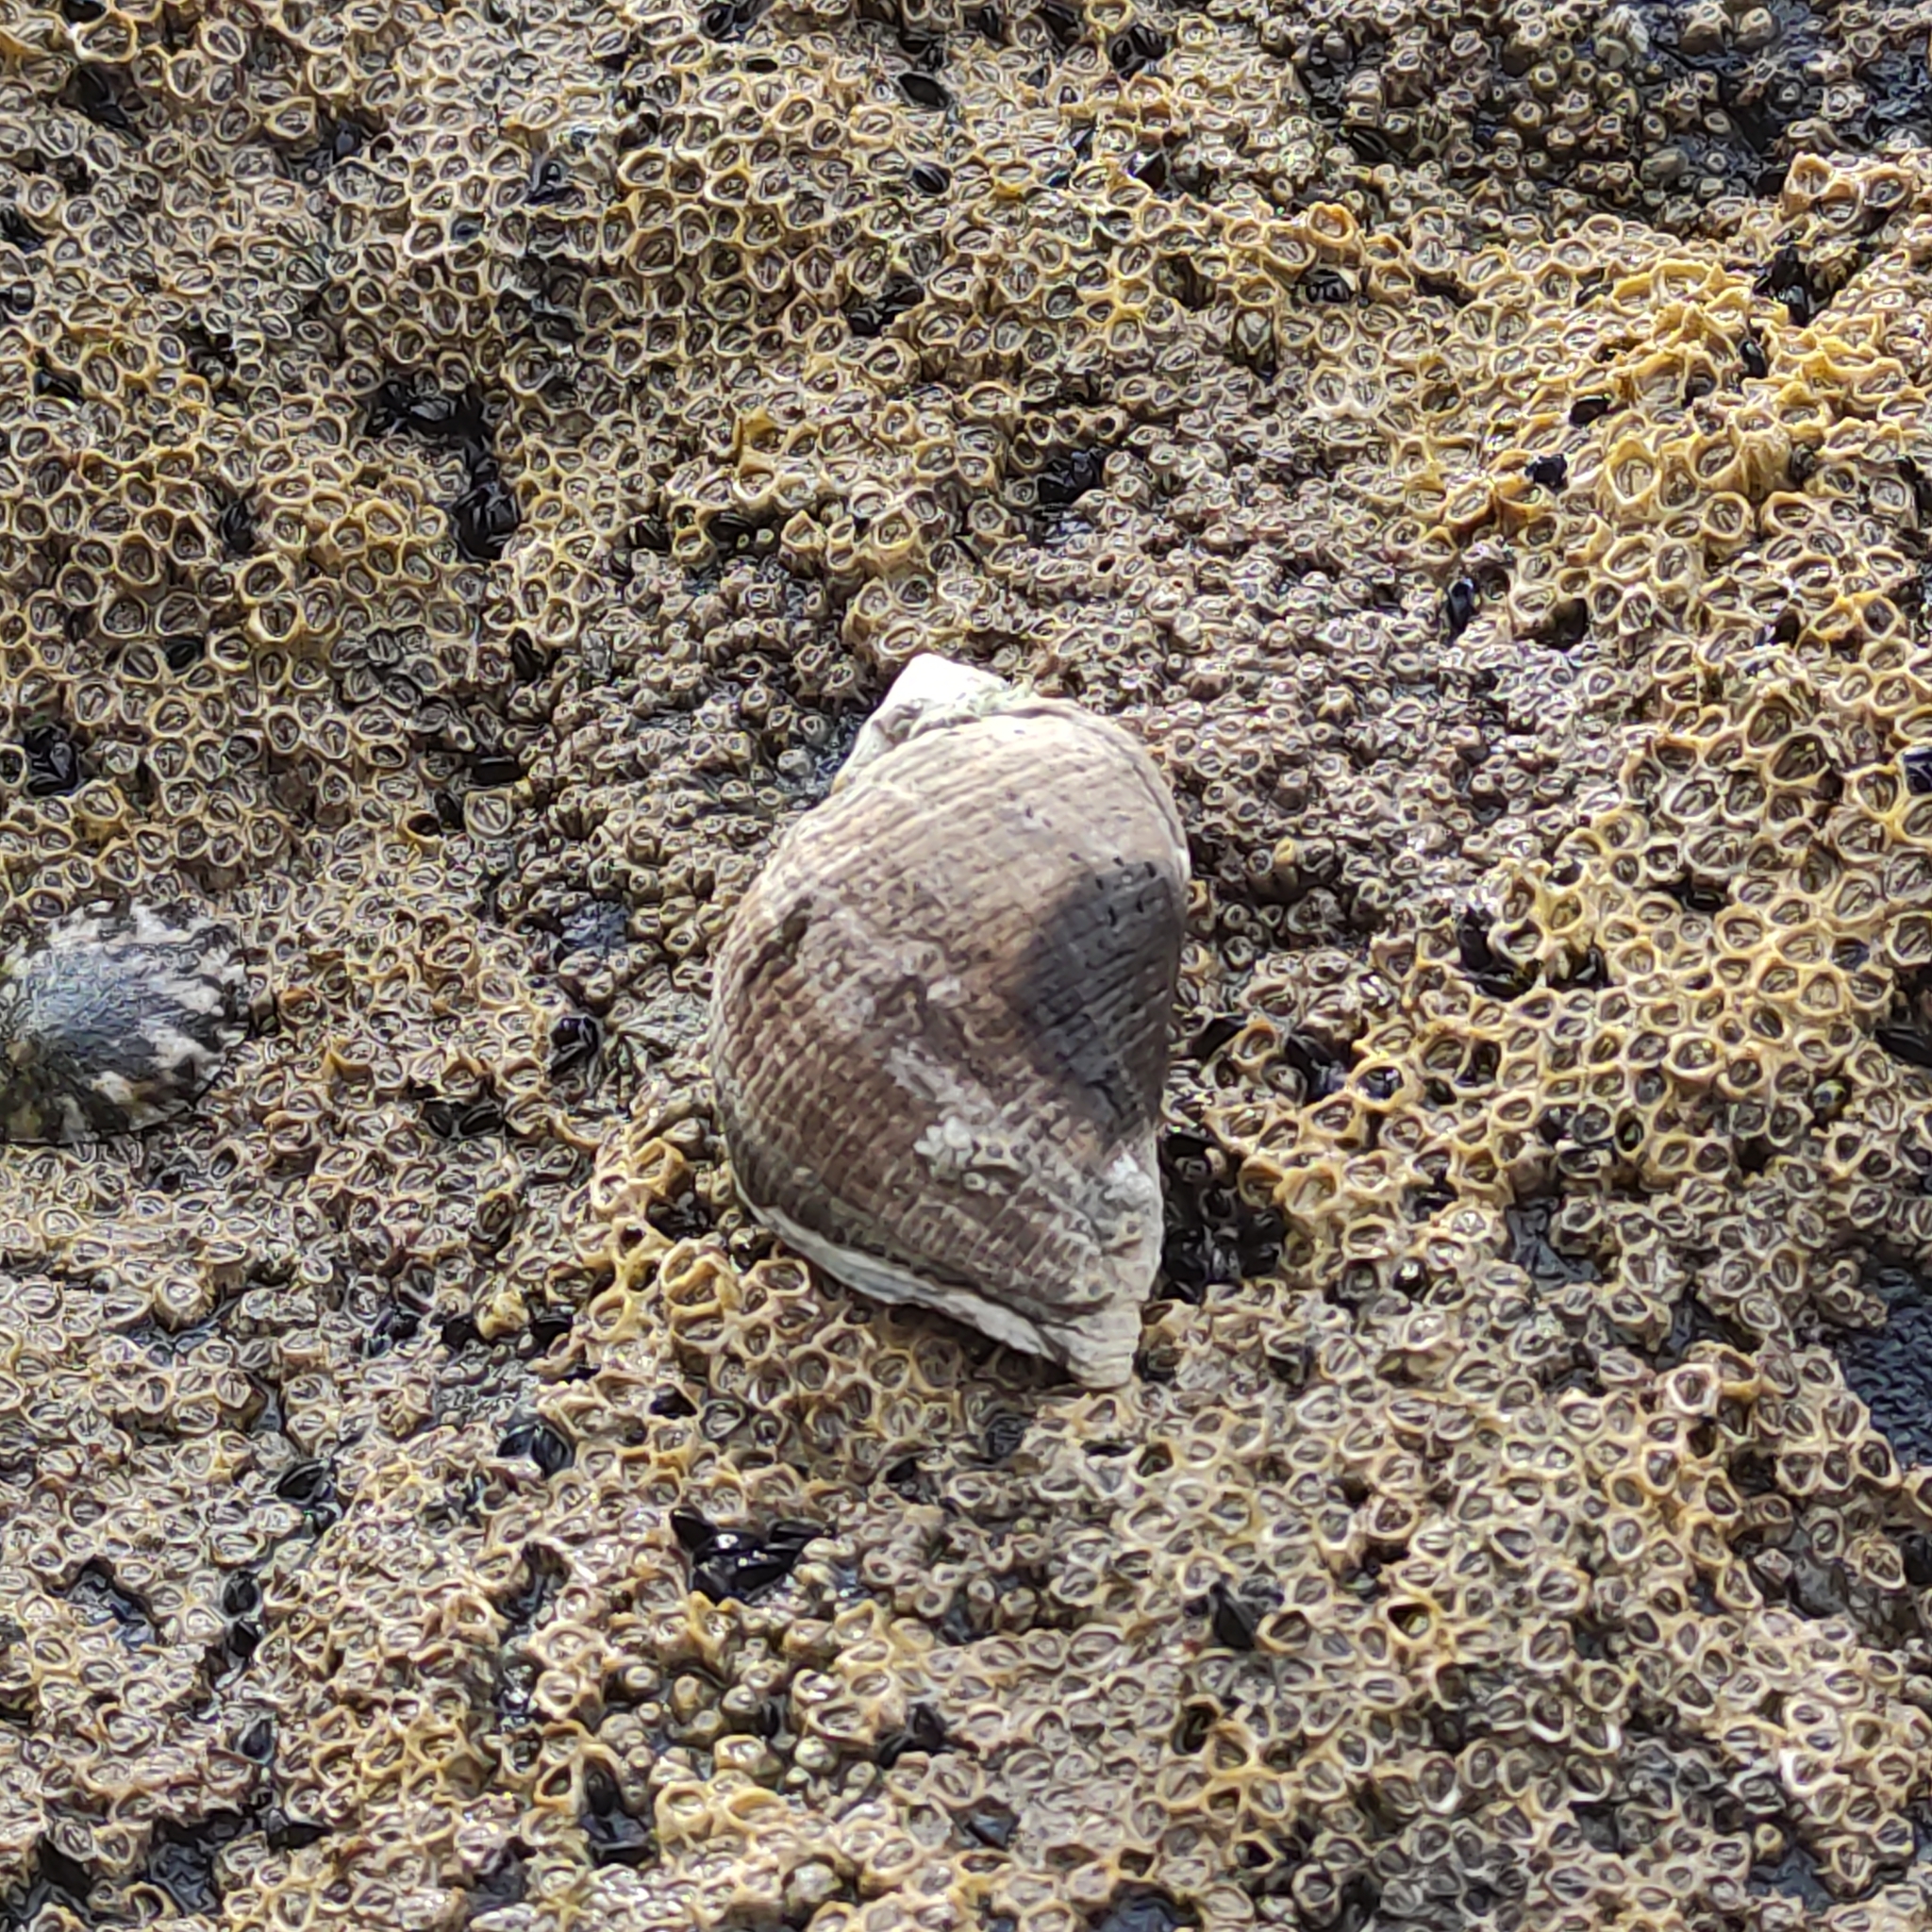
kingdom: Animalia
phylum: Mollusca
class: Gastropoda
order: Neogastropoda
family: Muricidae
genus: Haustrum
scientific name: Haustrum haustorium
